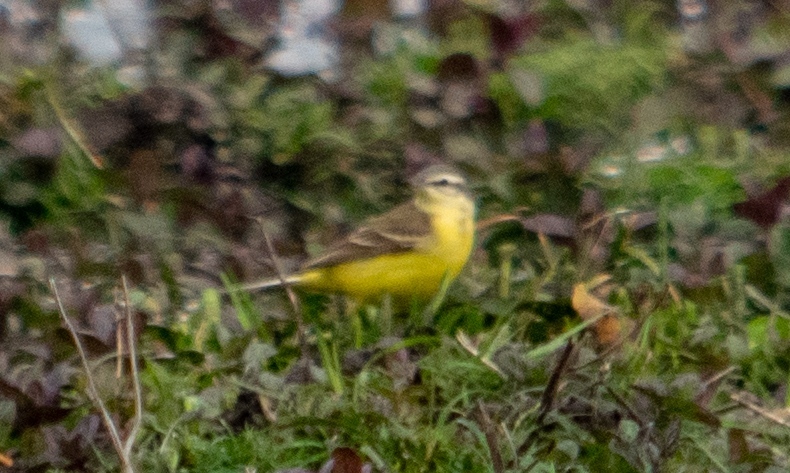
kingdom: Animalia
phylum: Chordata
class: Aves
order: Passeriformes
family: Motacillidae
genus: Motacilla
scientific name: Motacilla flava
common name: Western yellow wagtail
